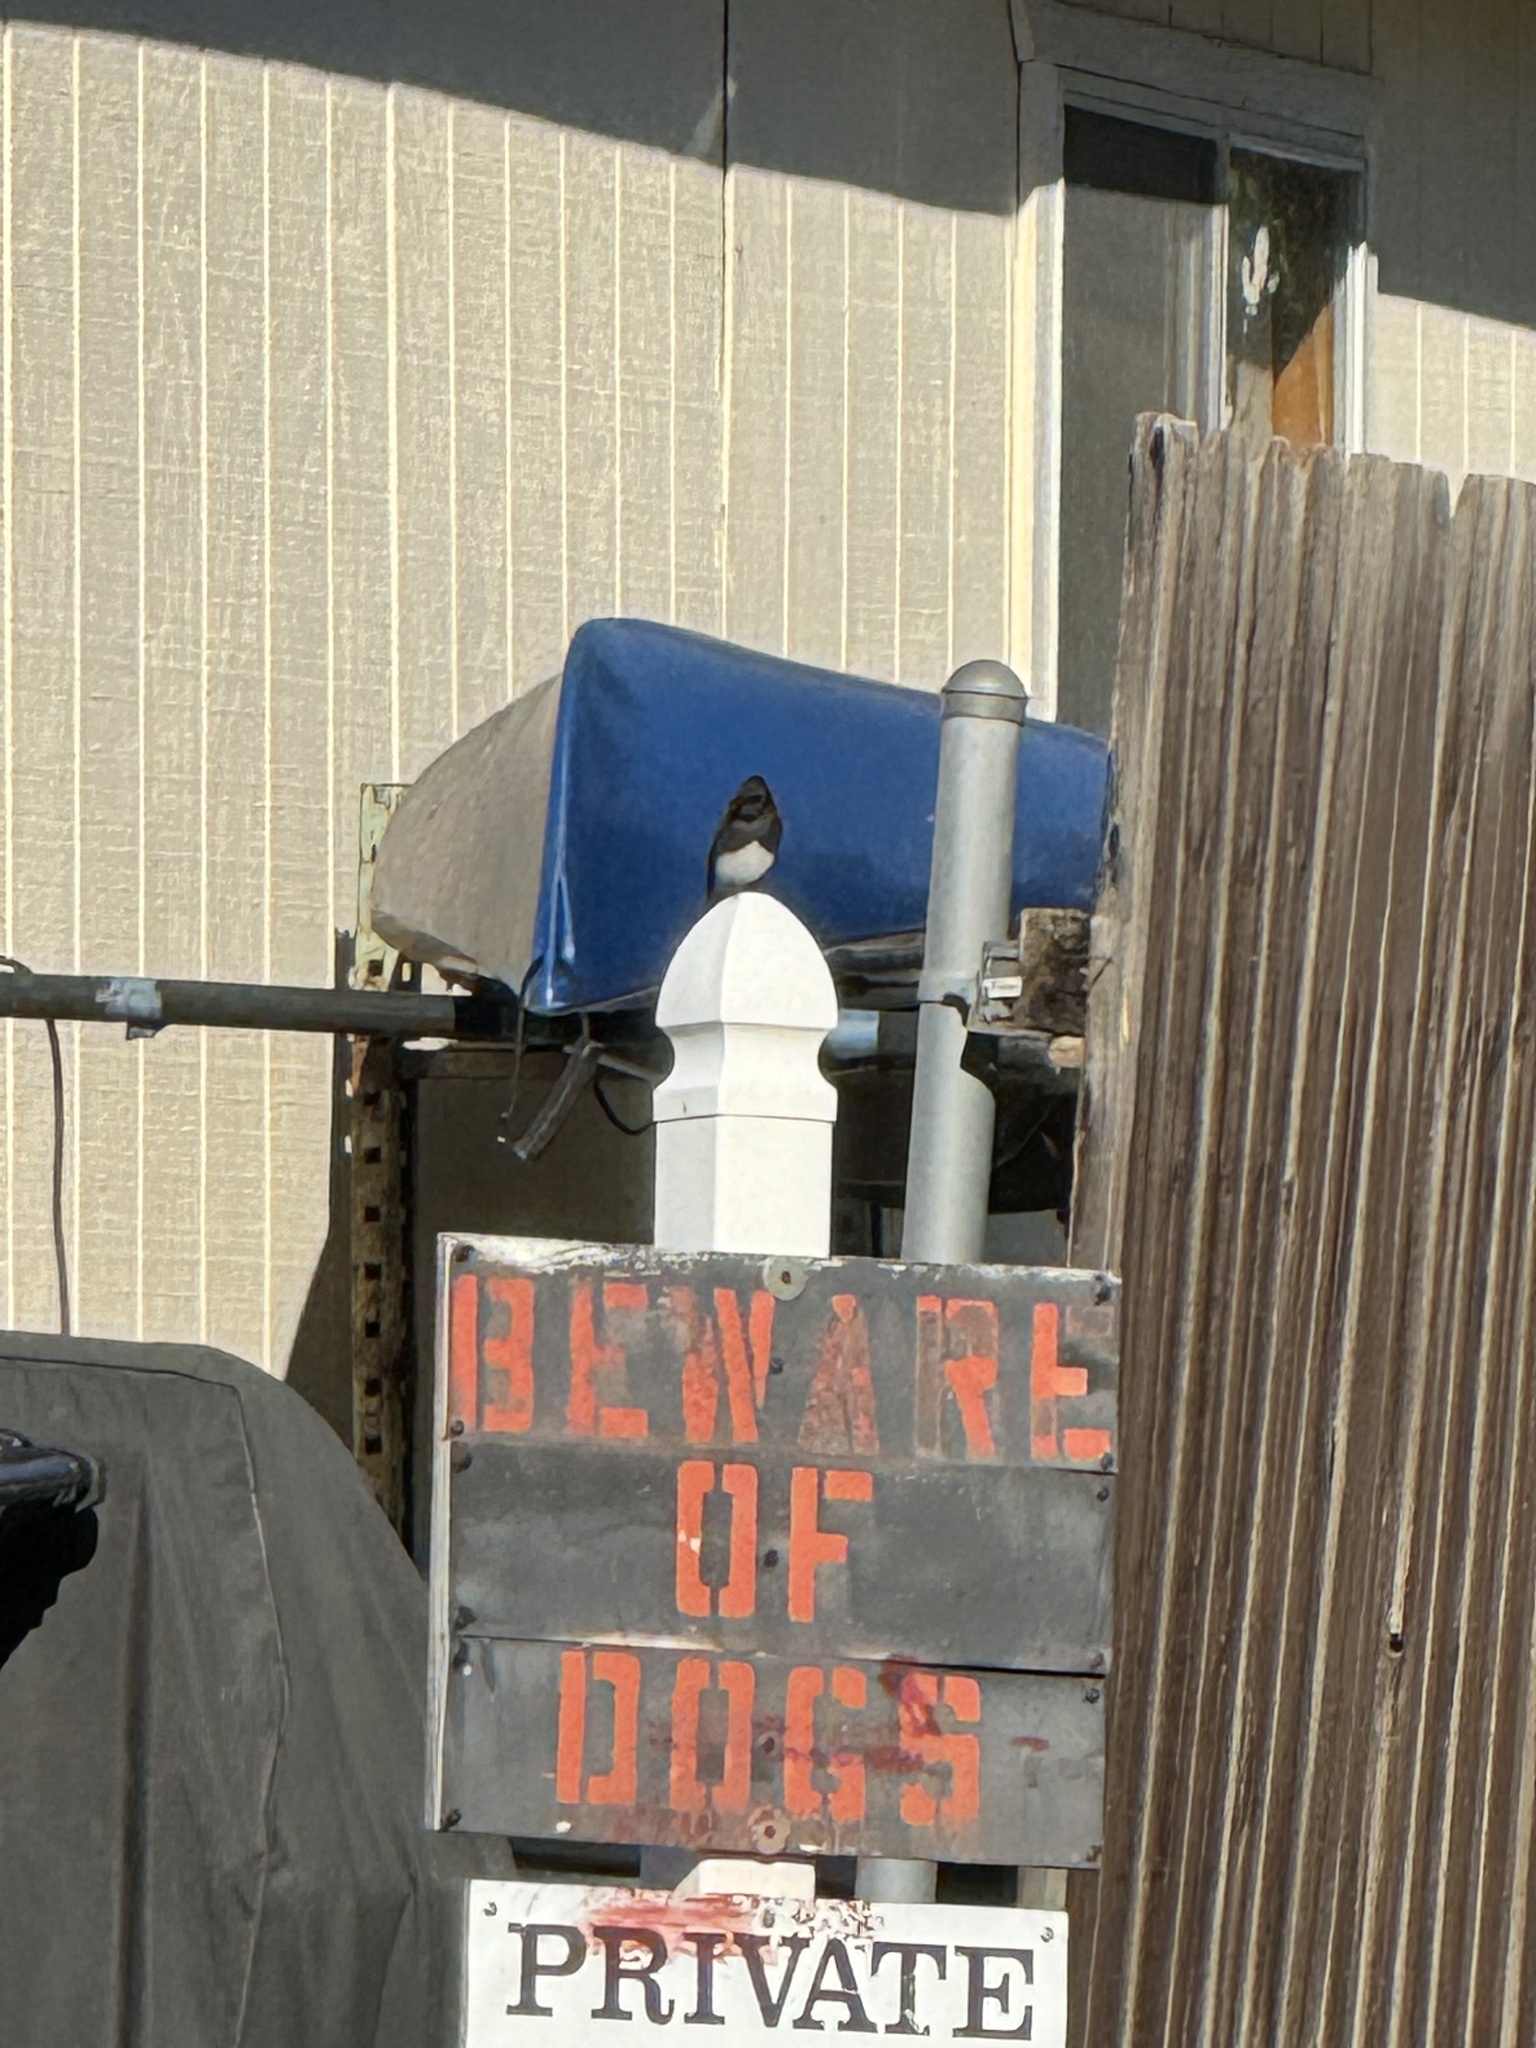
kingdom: Animalia
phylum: Chordata
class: Aves
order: Passeriformes
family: Tyrannidae
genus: Sayornis
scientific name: Sayornis nigricans
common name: Black phoebe
